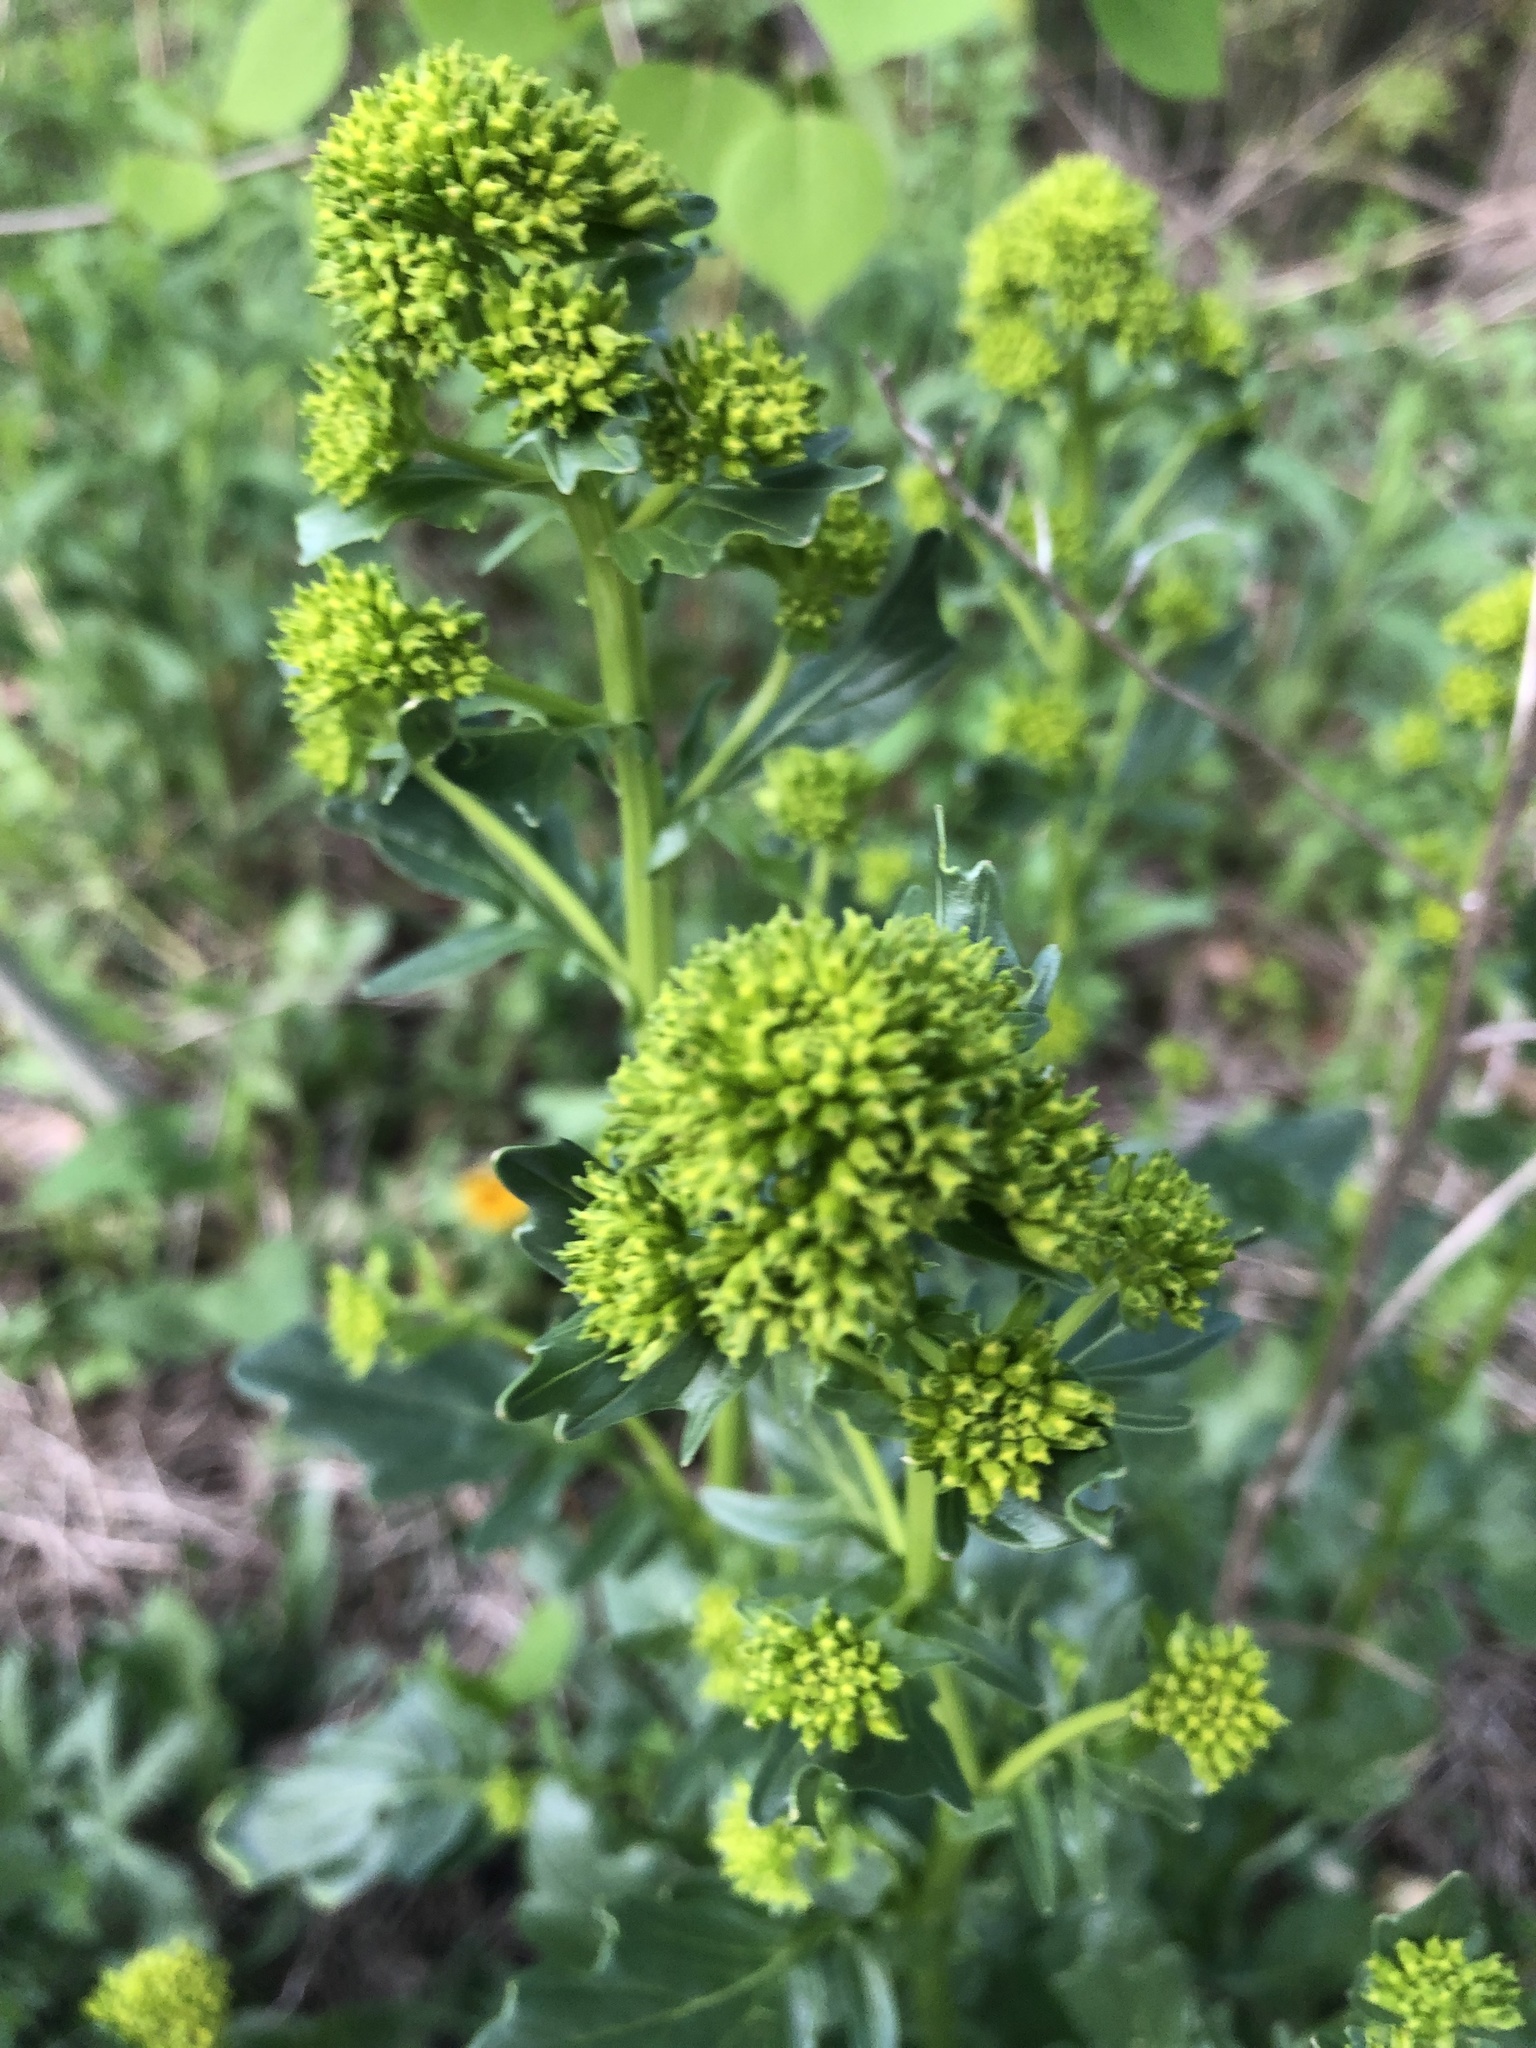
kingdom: Plantae
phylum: Tracheophyta
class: Magnoliopsida
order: Brassicales
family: Brassicaceae
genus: Barbarea
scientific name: Barbarea vulgaris
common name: Cressy-greens
